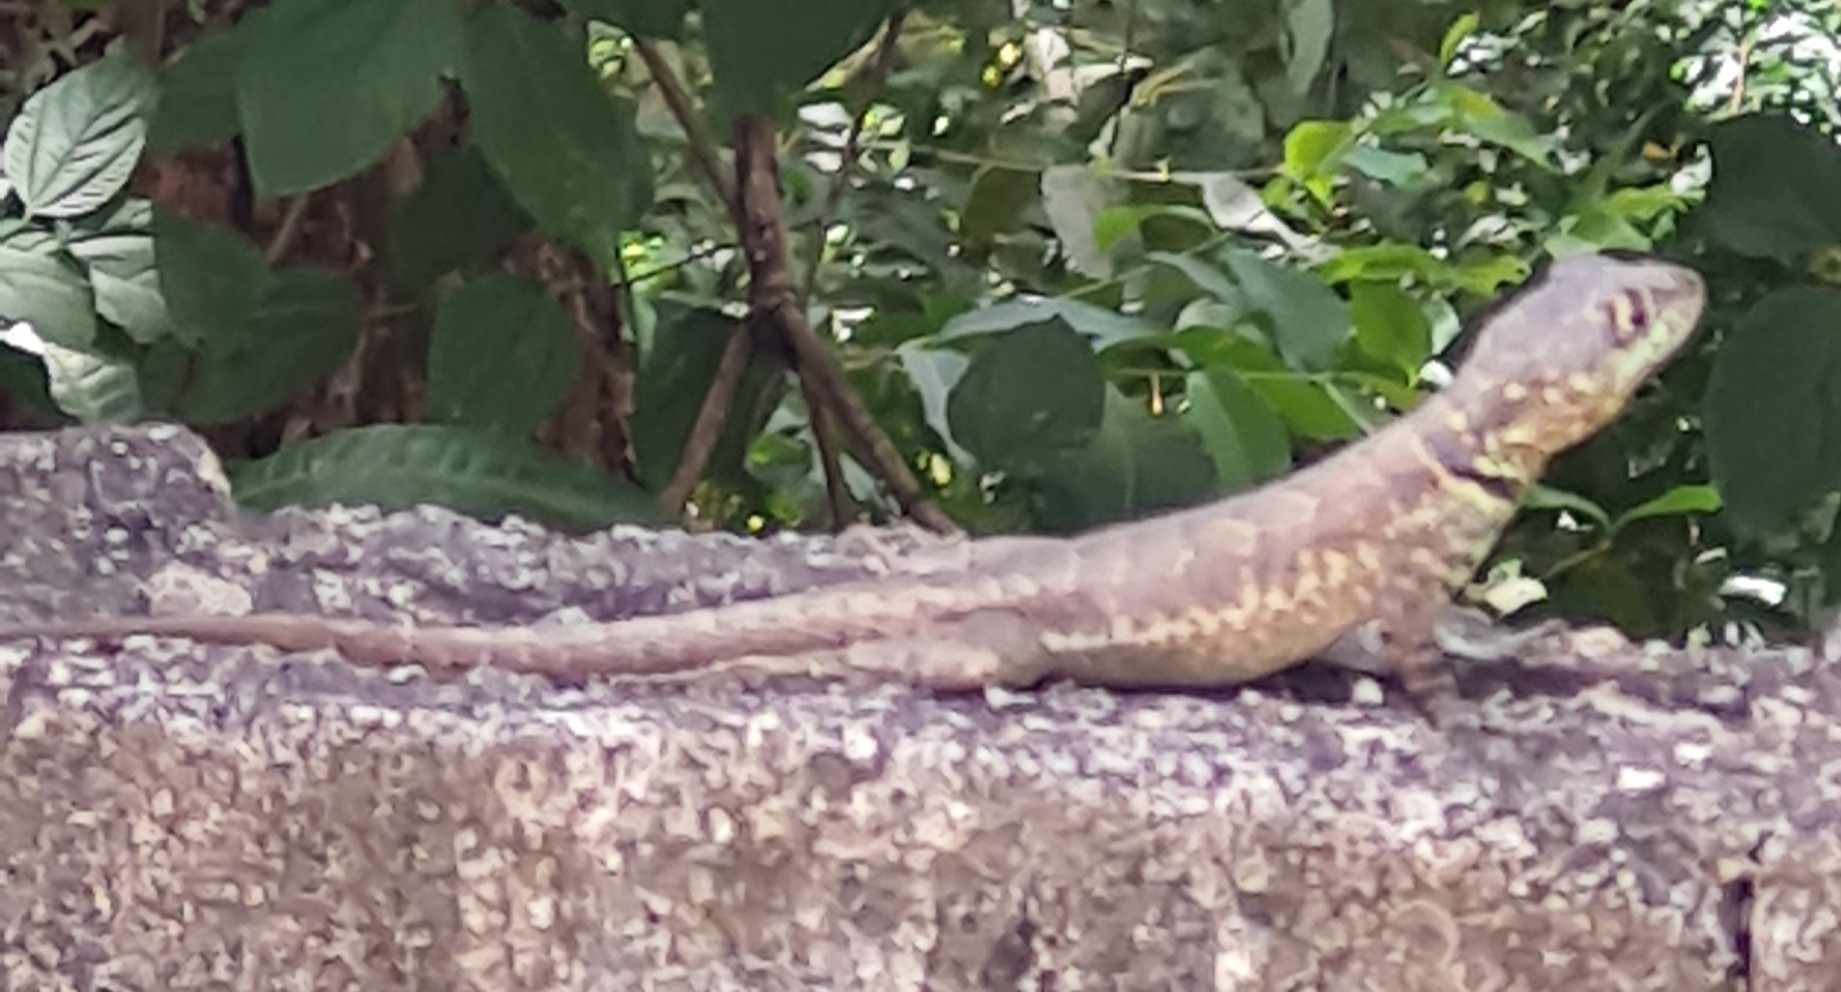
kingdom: Animalia
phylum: Chordata
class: Squamata
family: Tropiduridae
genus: Tropidurus
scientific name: Tropidurus torquatus
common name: Amazon lava lizard
